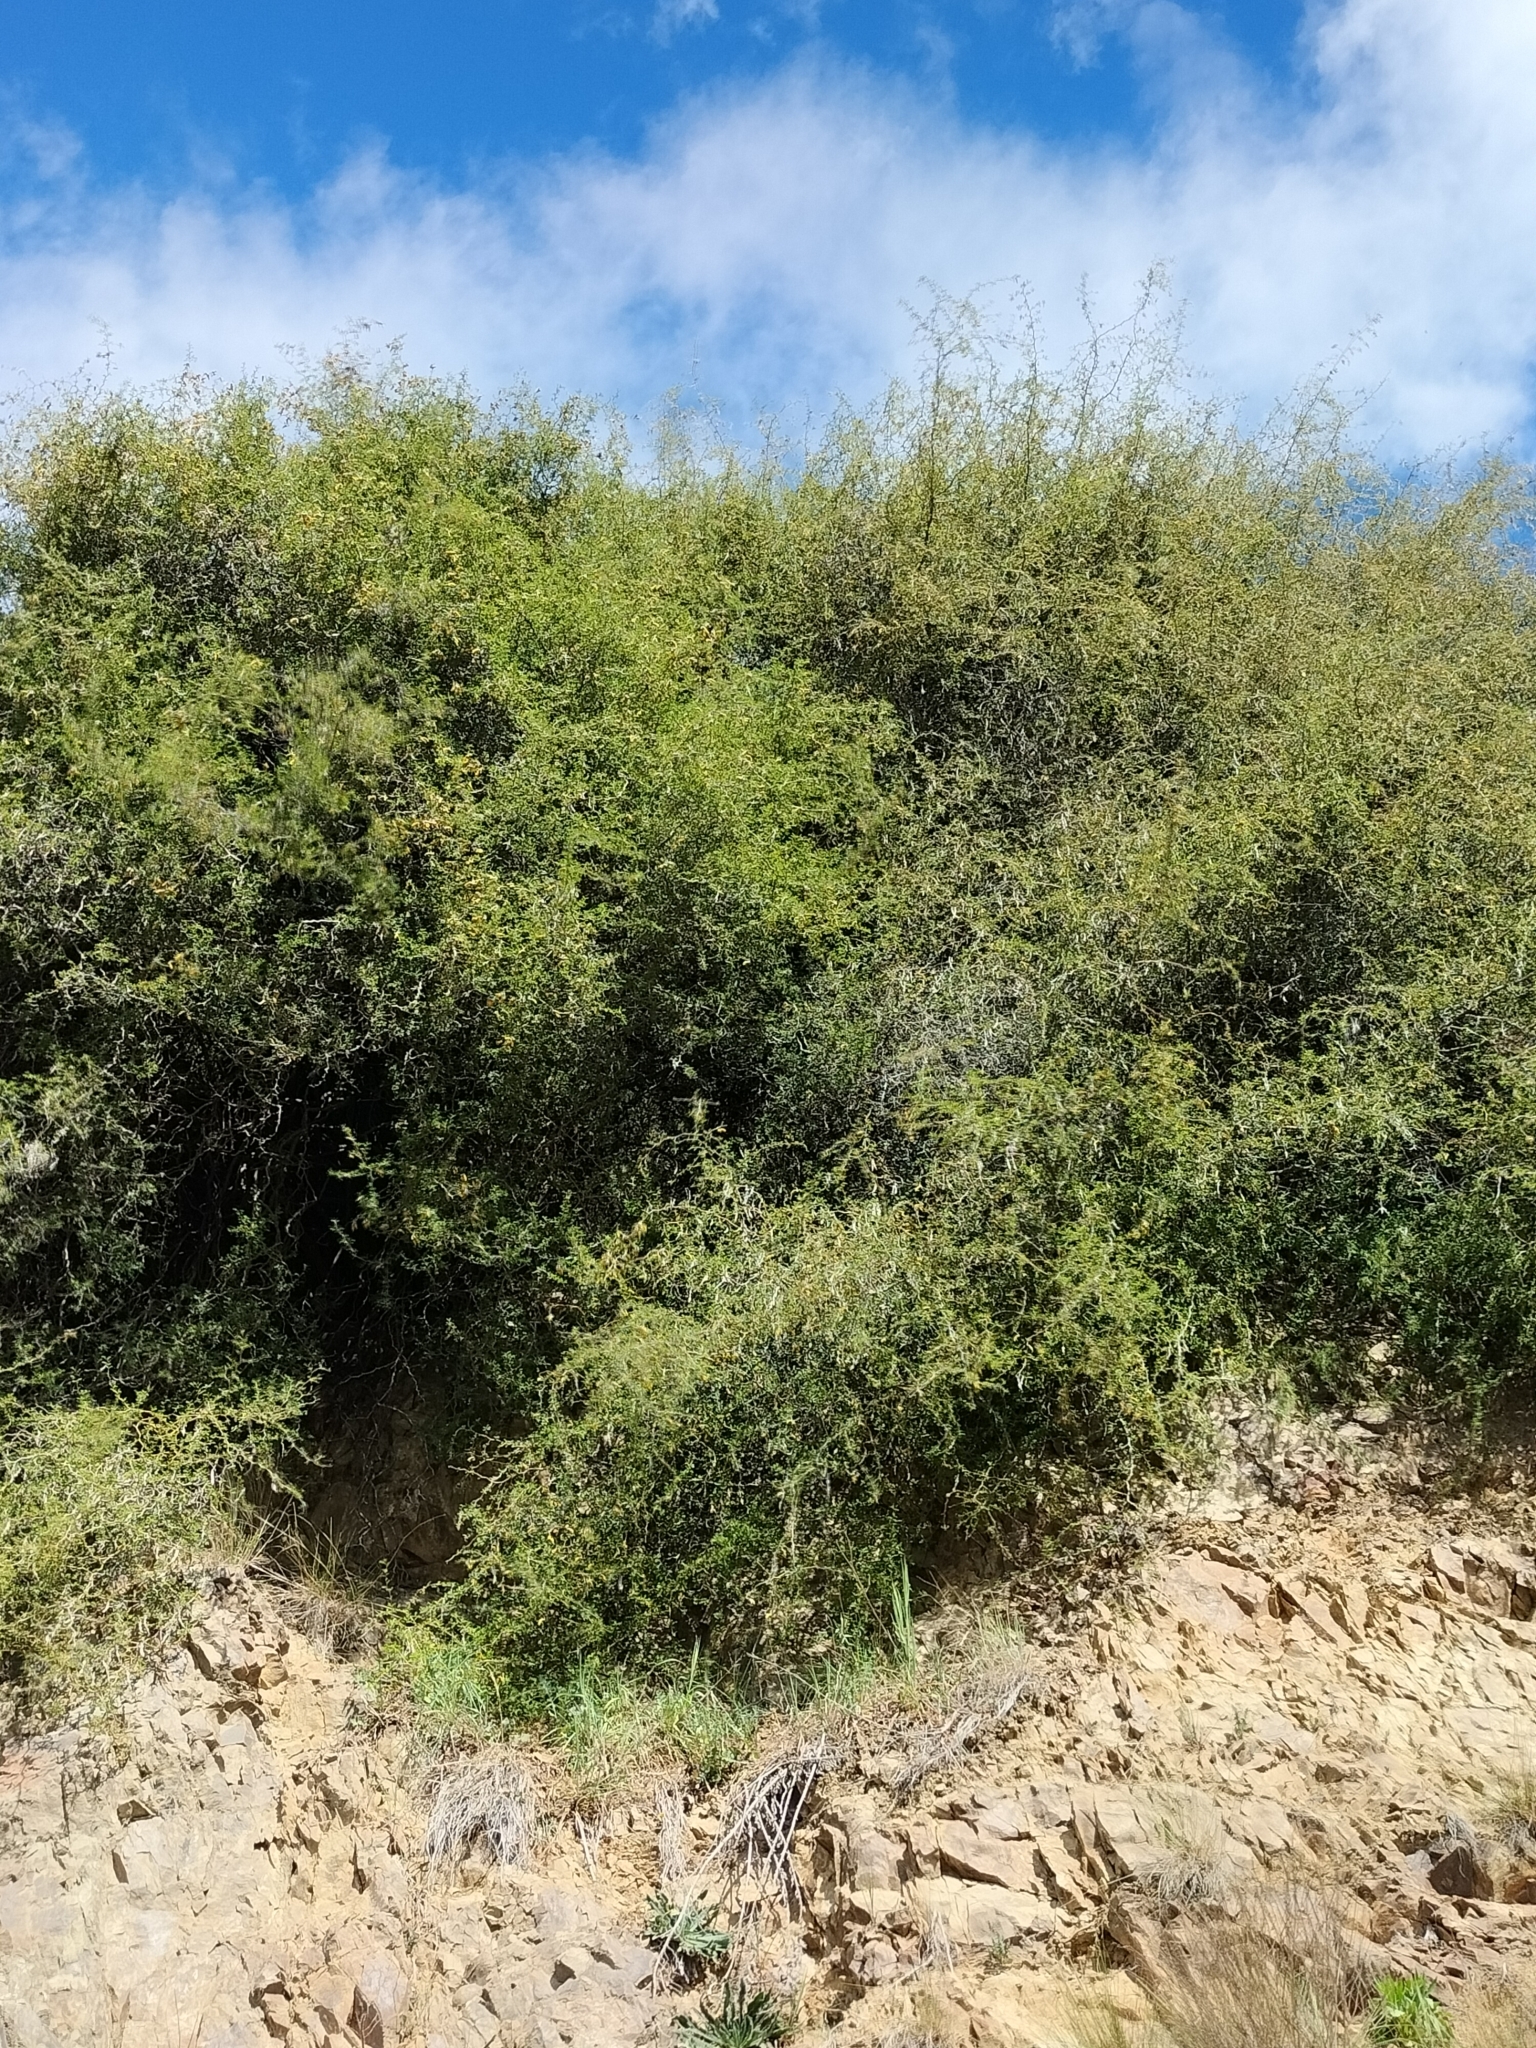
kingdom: Plantae
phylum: Tracheophyta
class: Magnoliopsida
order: Fabales
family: Fabaceae
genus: Sophora
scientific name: Sophora prostrata
